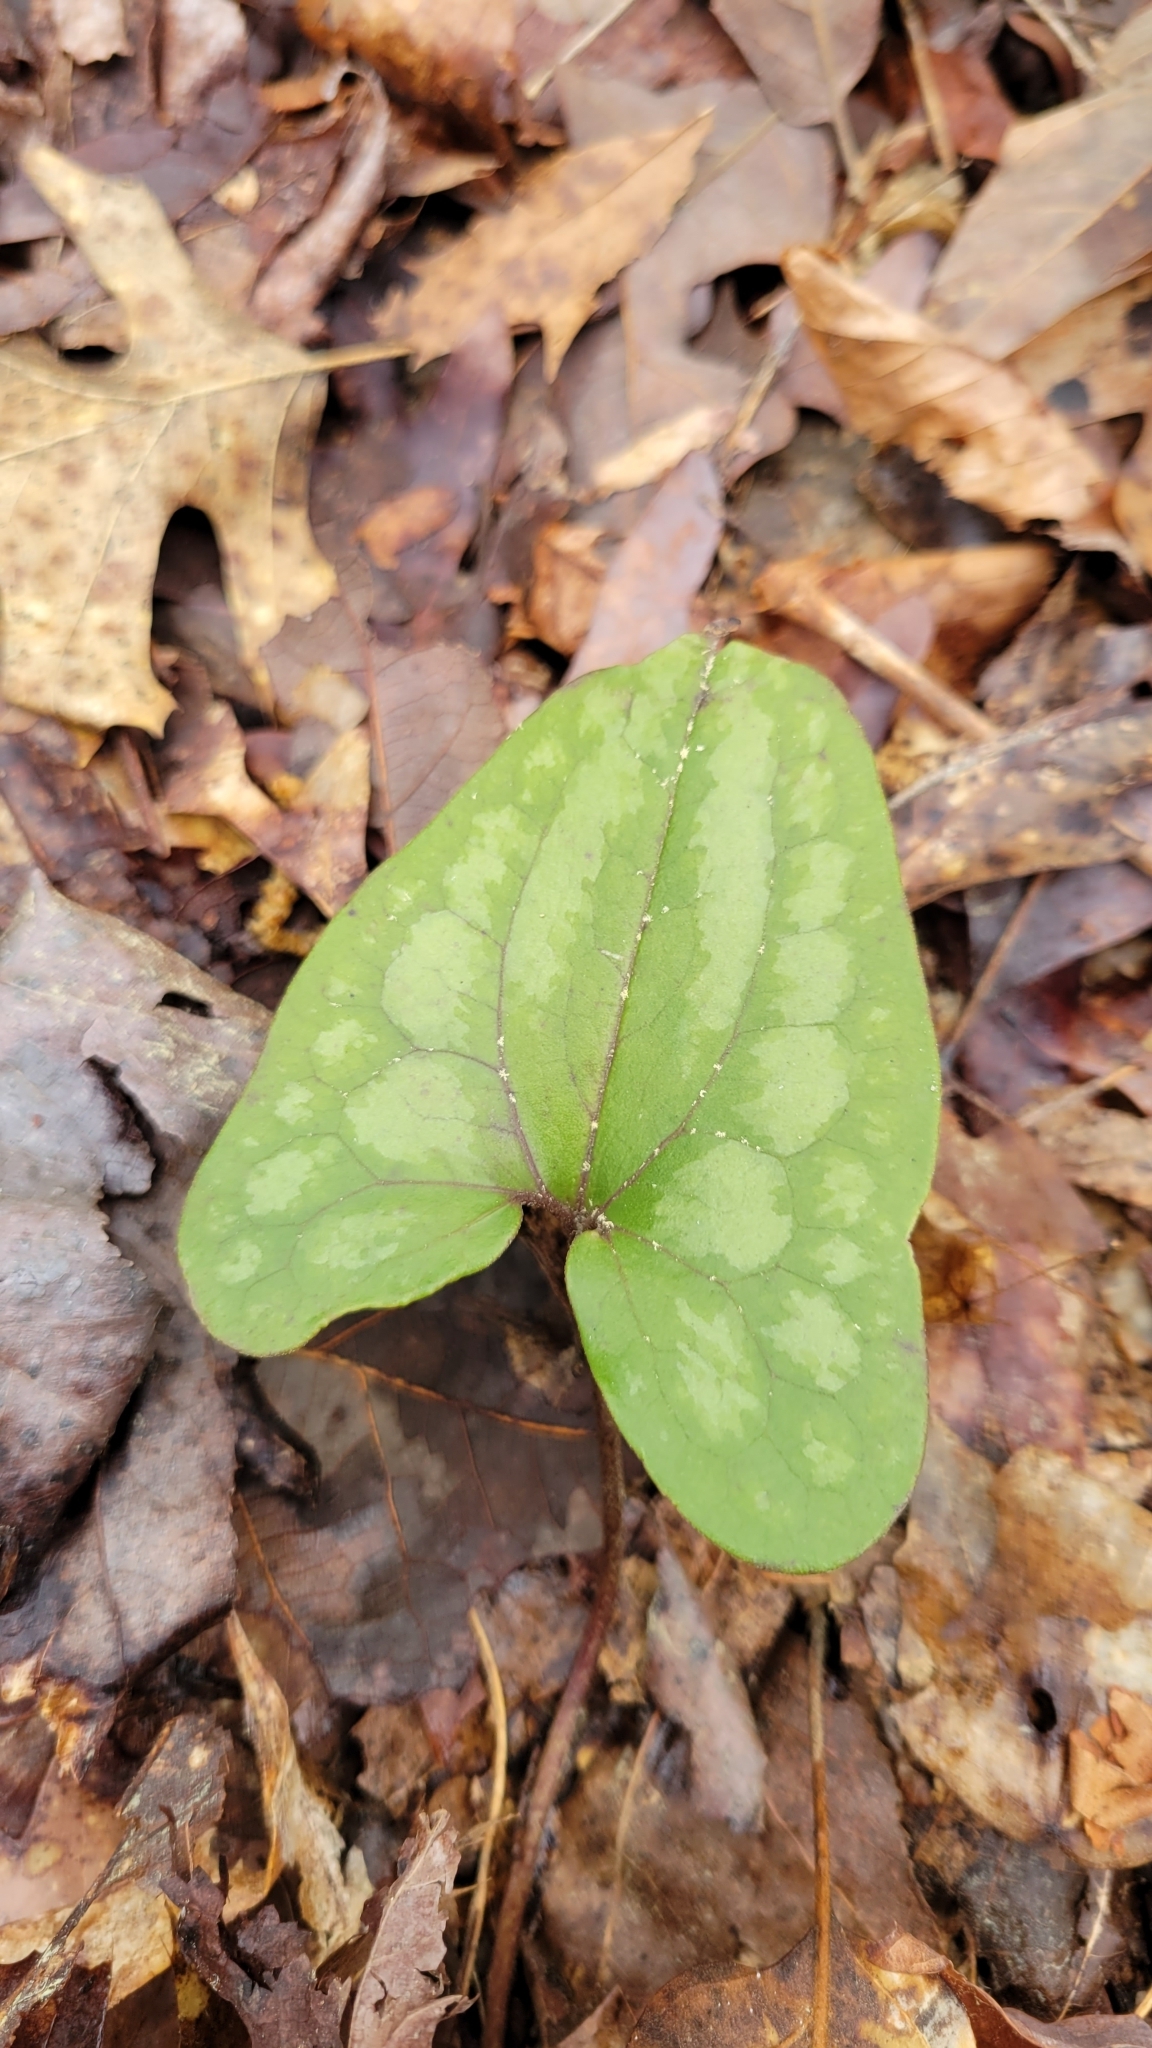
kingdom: Plantae
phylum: Tracheophyta
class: Magnoliopsida
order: Piperales
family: Aristolochiaceae
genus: Hexastylis
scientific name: Hexastylis arifolia
